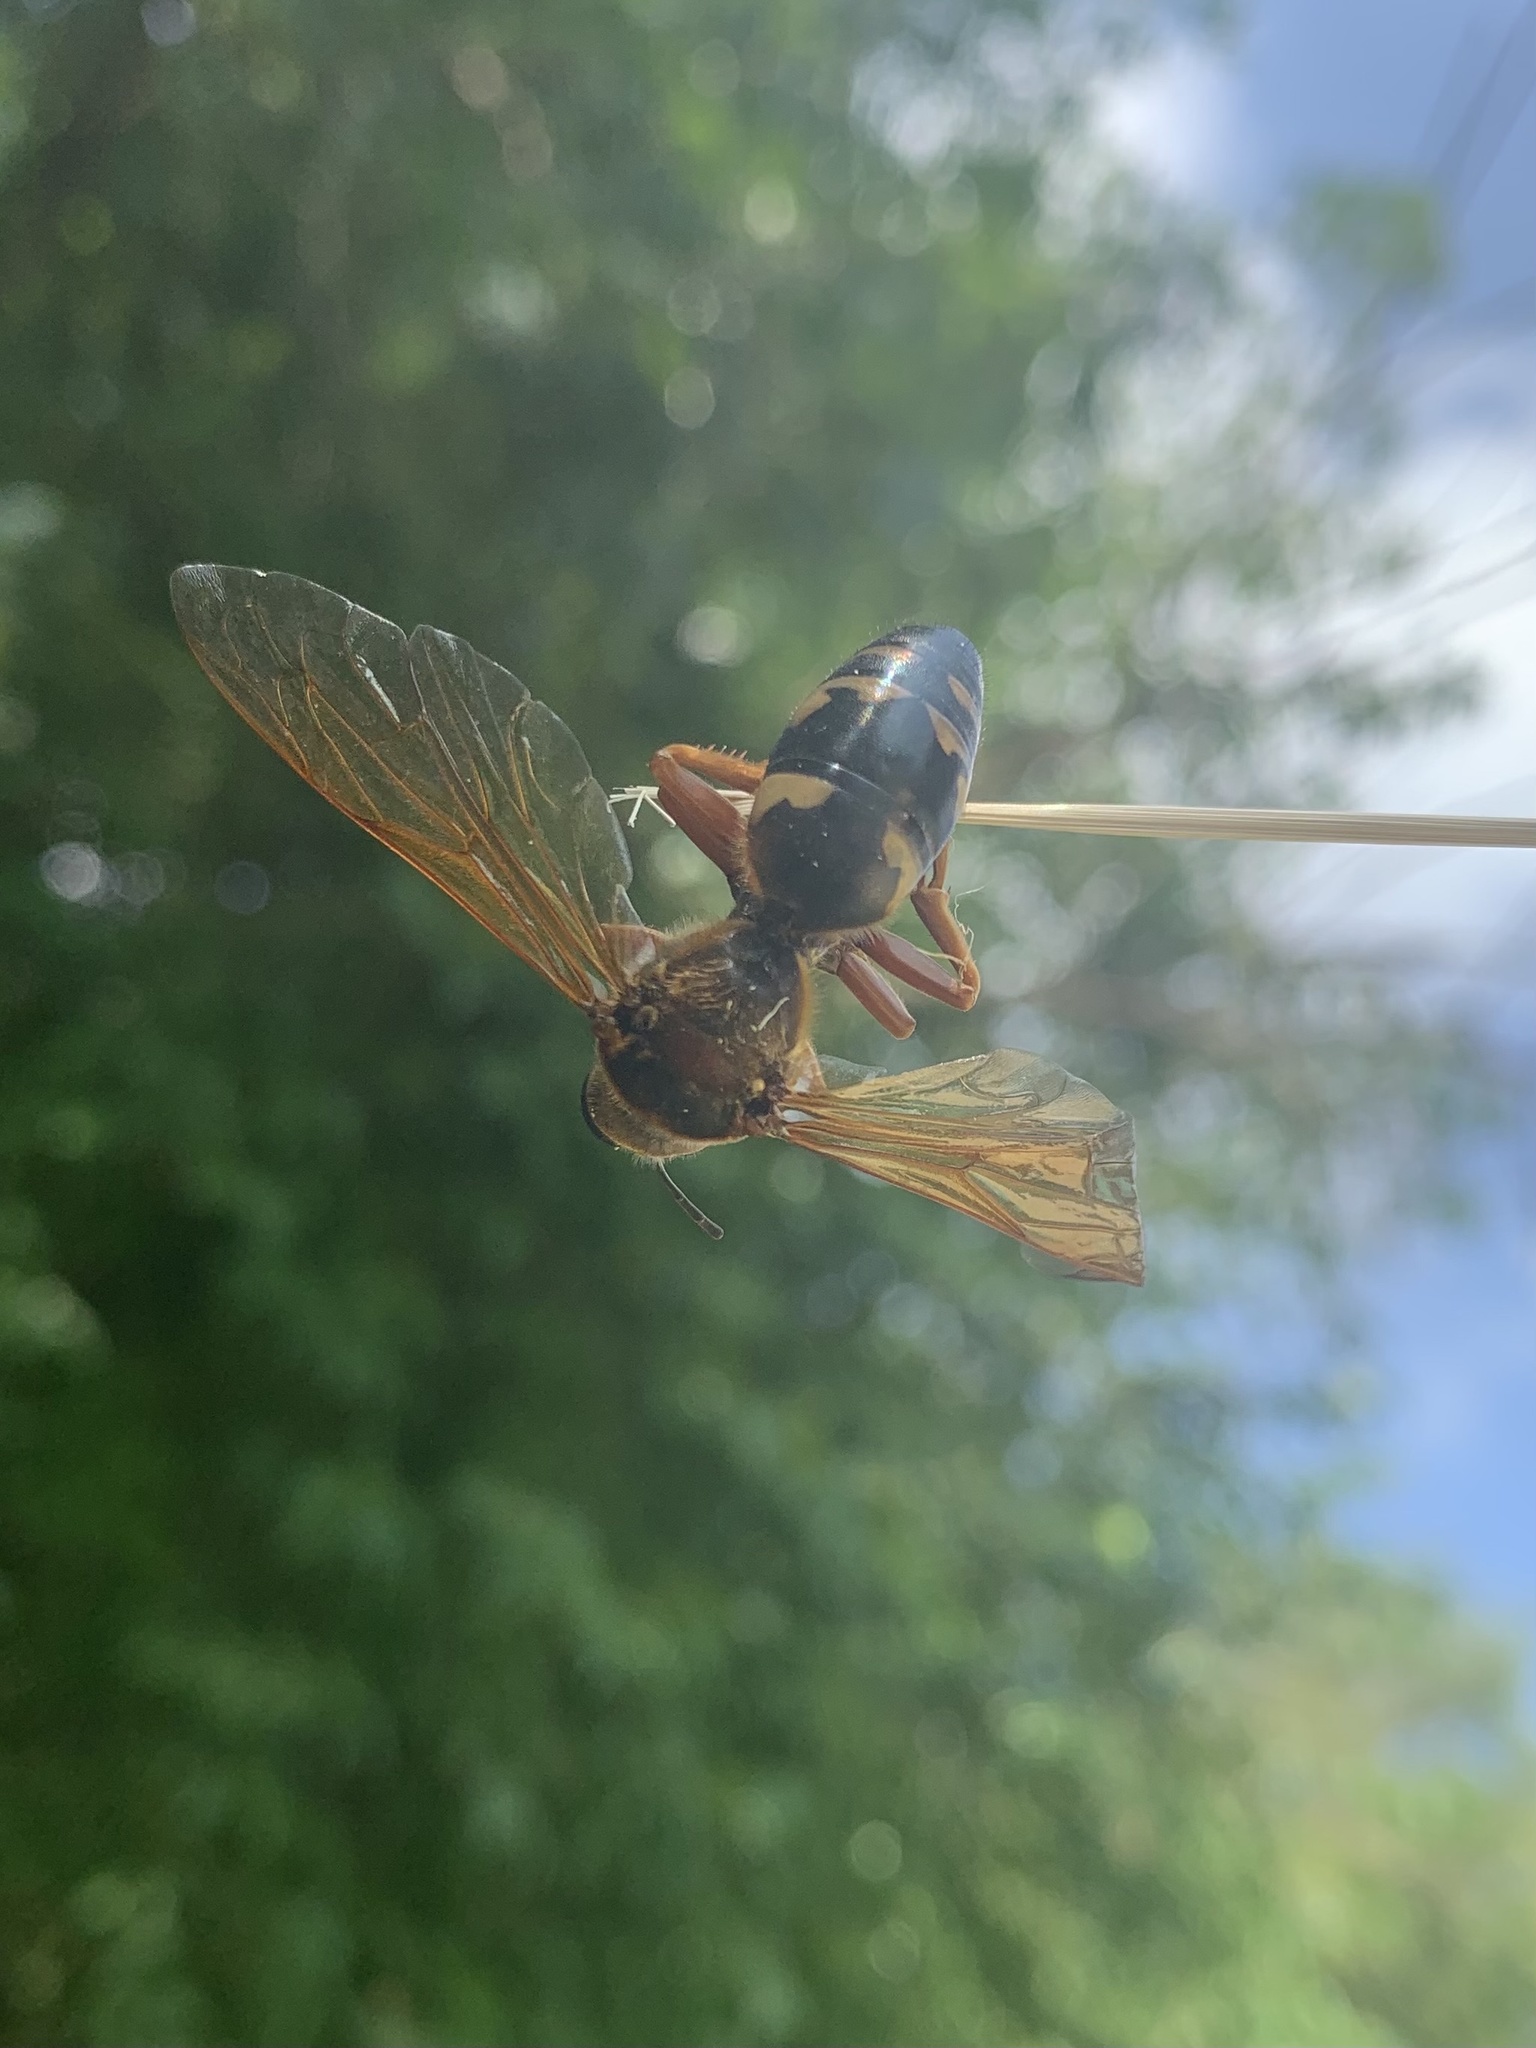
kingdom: Animalia
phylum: Arthropoda
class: Insecta
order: Hymenoptera
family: Crabronidae
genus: Sphecius
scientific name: Sphecius speciosus
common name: Cicada killer
